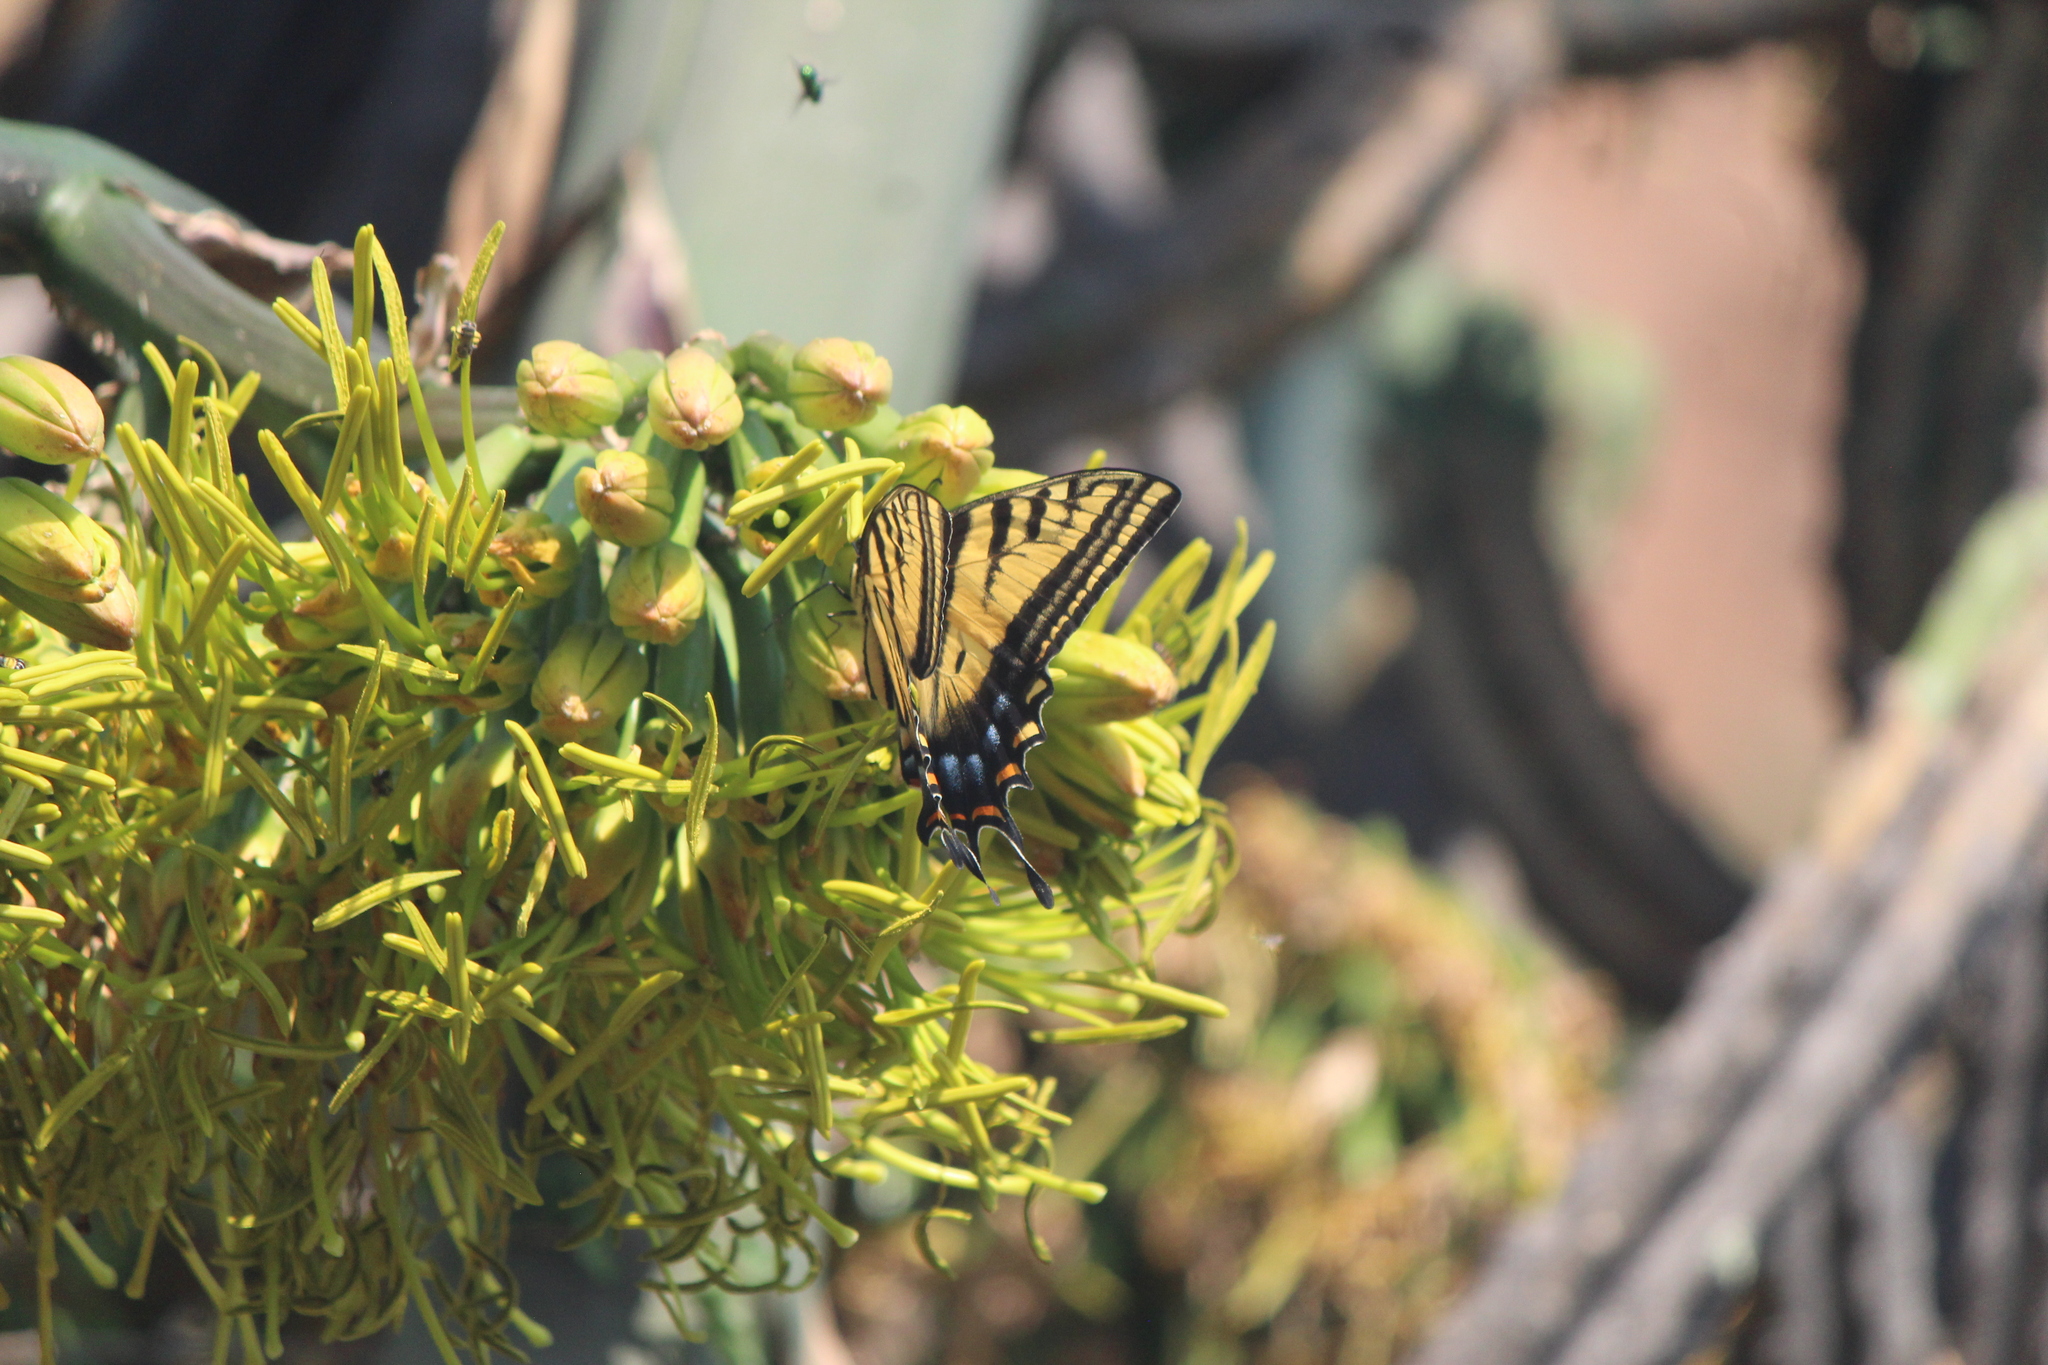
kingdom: Animalia
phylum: Arthropoda
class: Insecta
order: Lepidoptera
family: Papilionidae
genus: Papilio
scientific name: Papilio multicaudata
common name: Two-tailed tiger swallowtail
